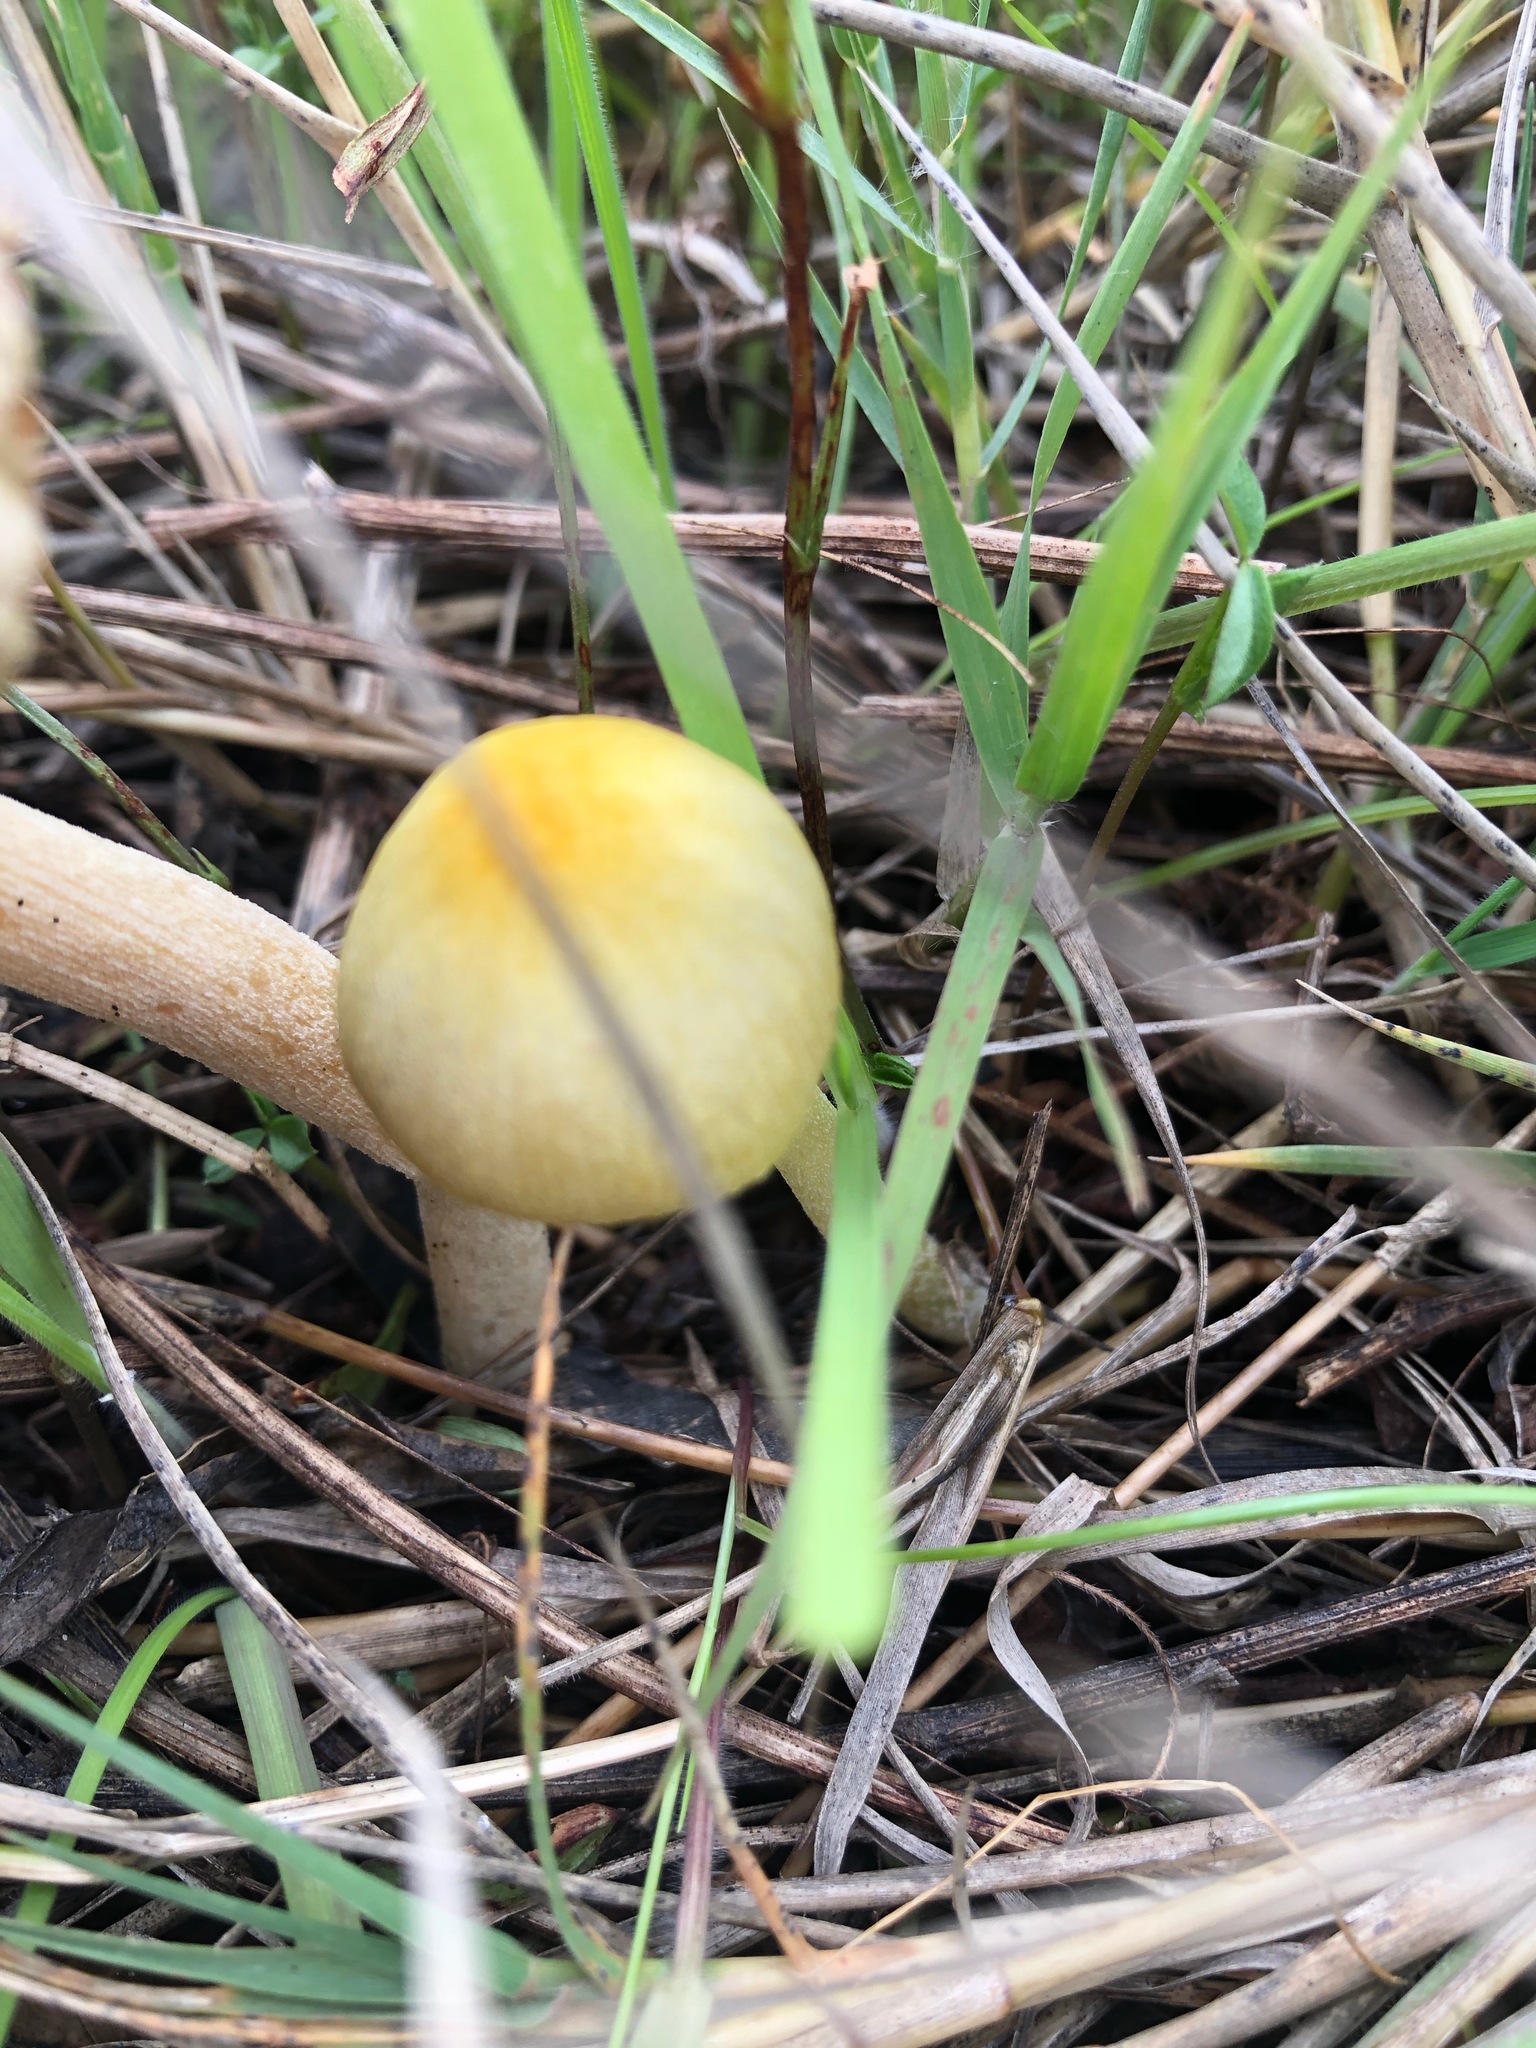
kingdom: Fungi
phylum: Basidiomycota
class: Agaricomycetes
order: Agaricales
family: Bolbitiaceae
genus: Bolbitius
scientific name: Bolbitius titubans
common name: Yellow fieldcap
